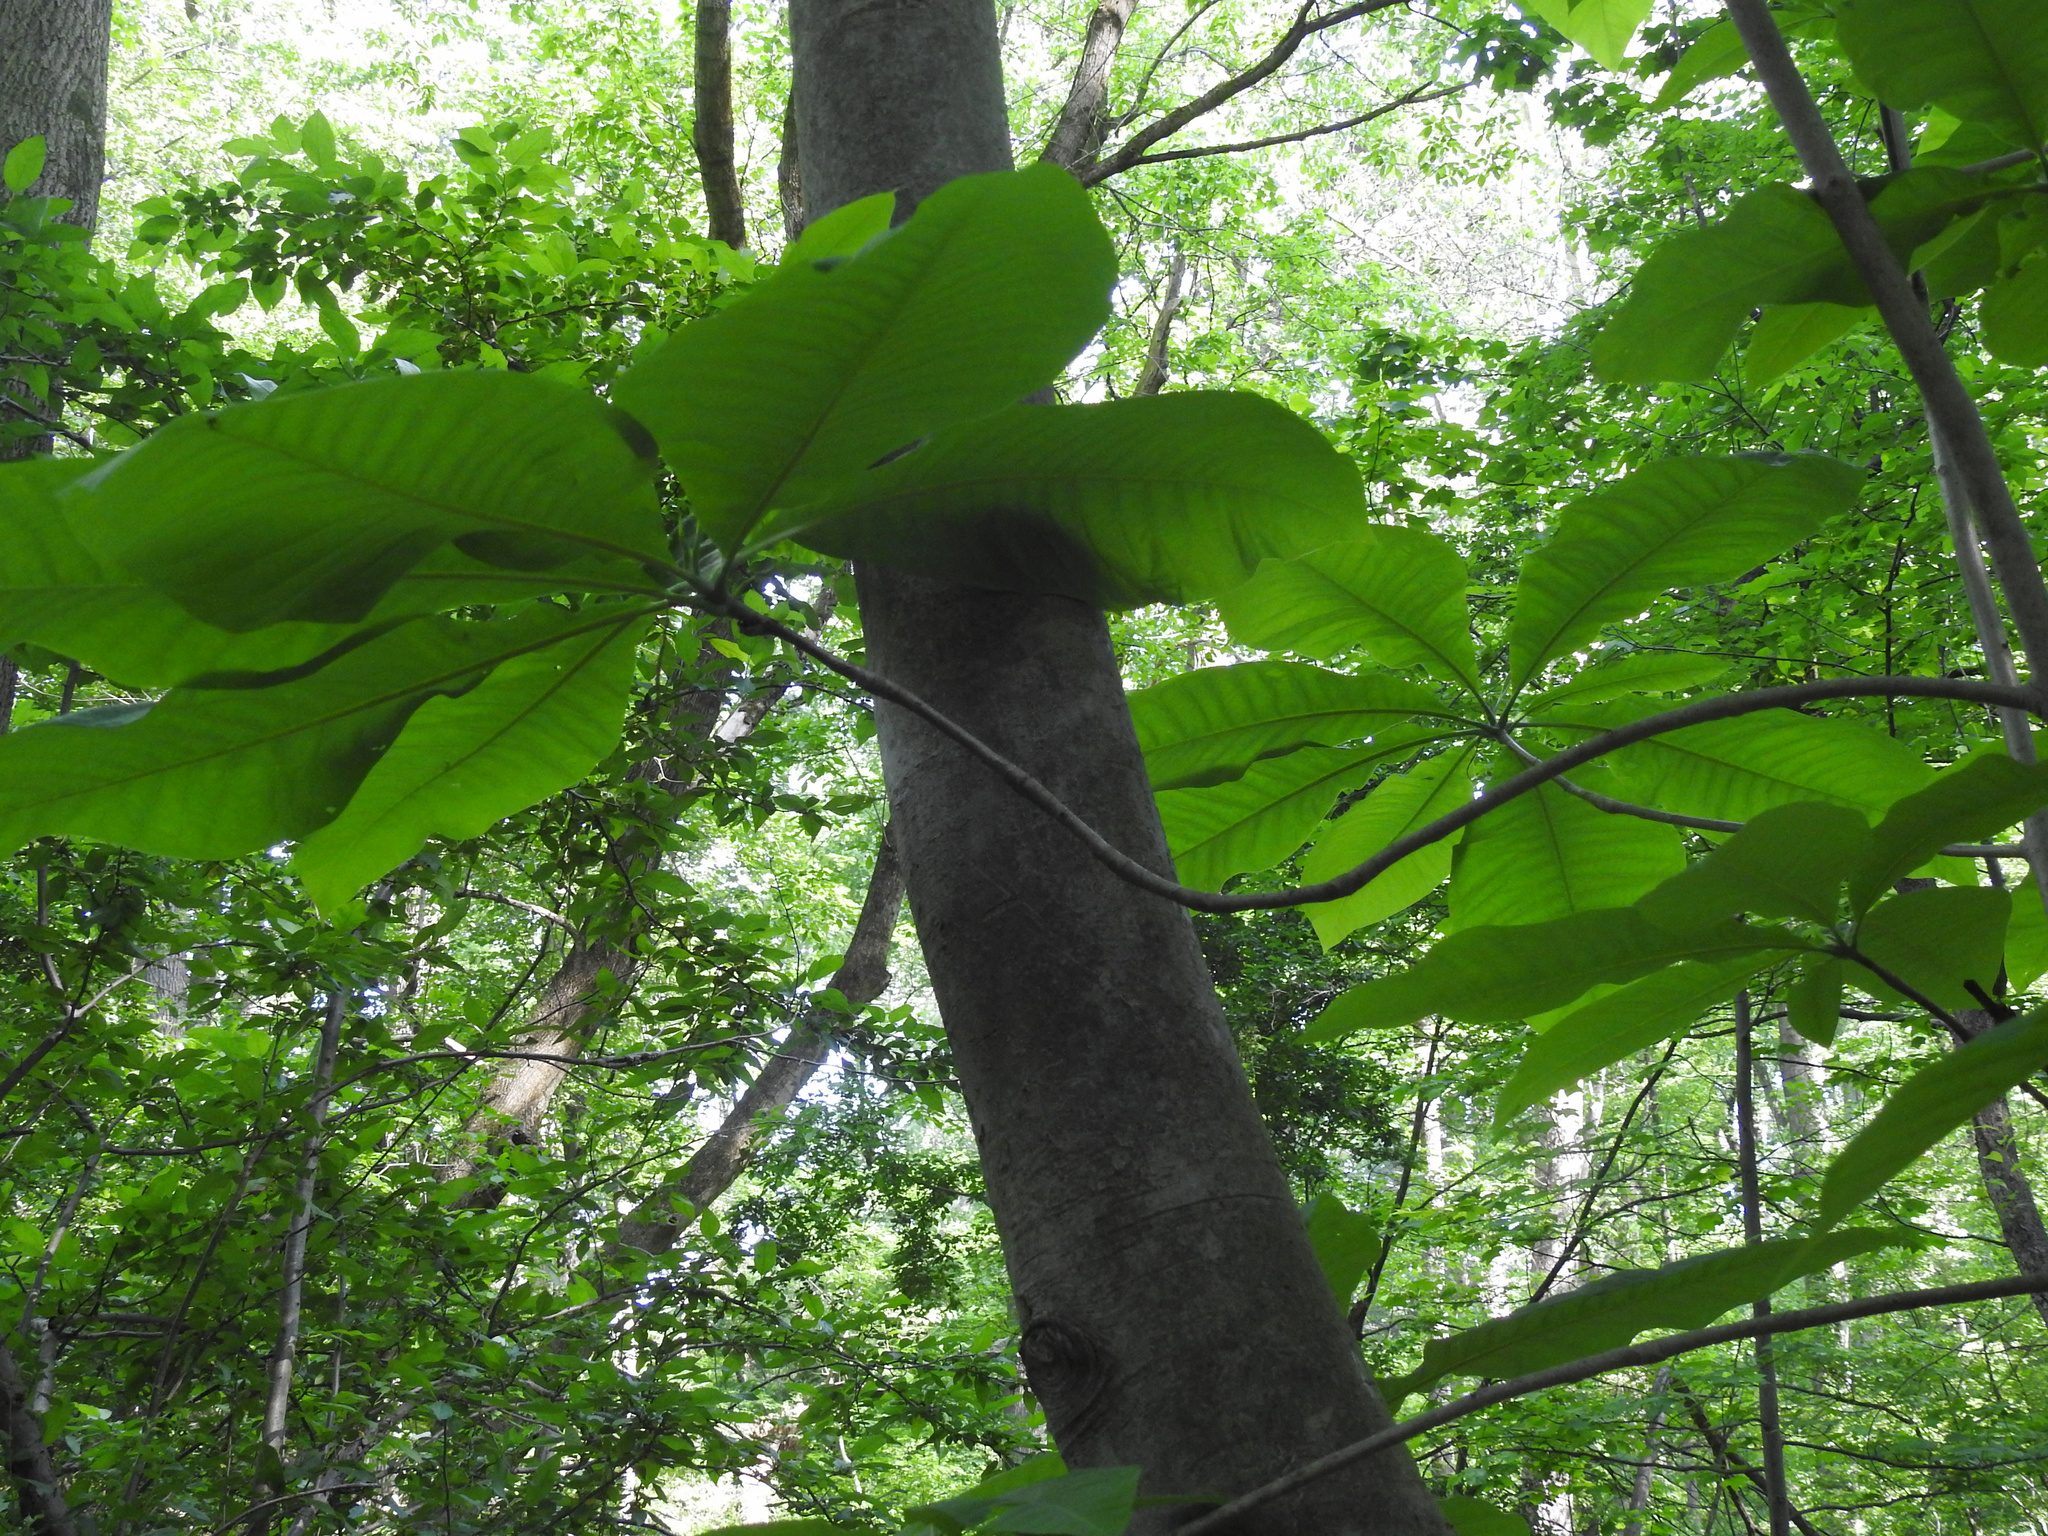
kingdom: Plantae
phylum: Tracheophyta
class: Magnoliopsida
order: Magnoliales
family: Magnoliaceae
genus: Magnolia
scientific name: Magnolia tripetala
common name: Umbrella magnolia
